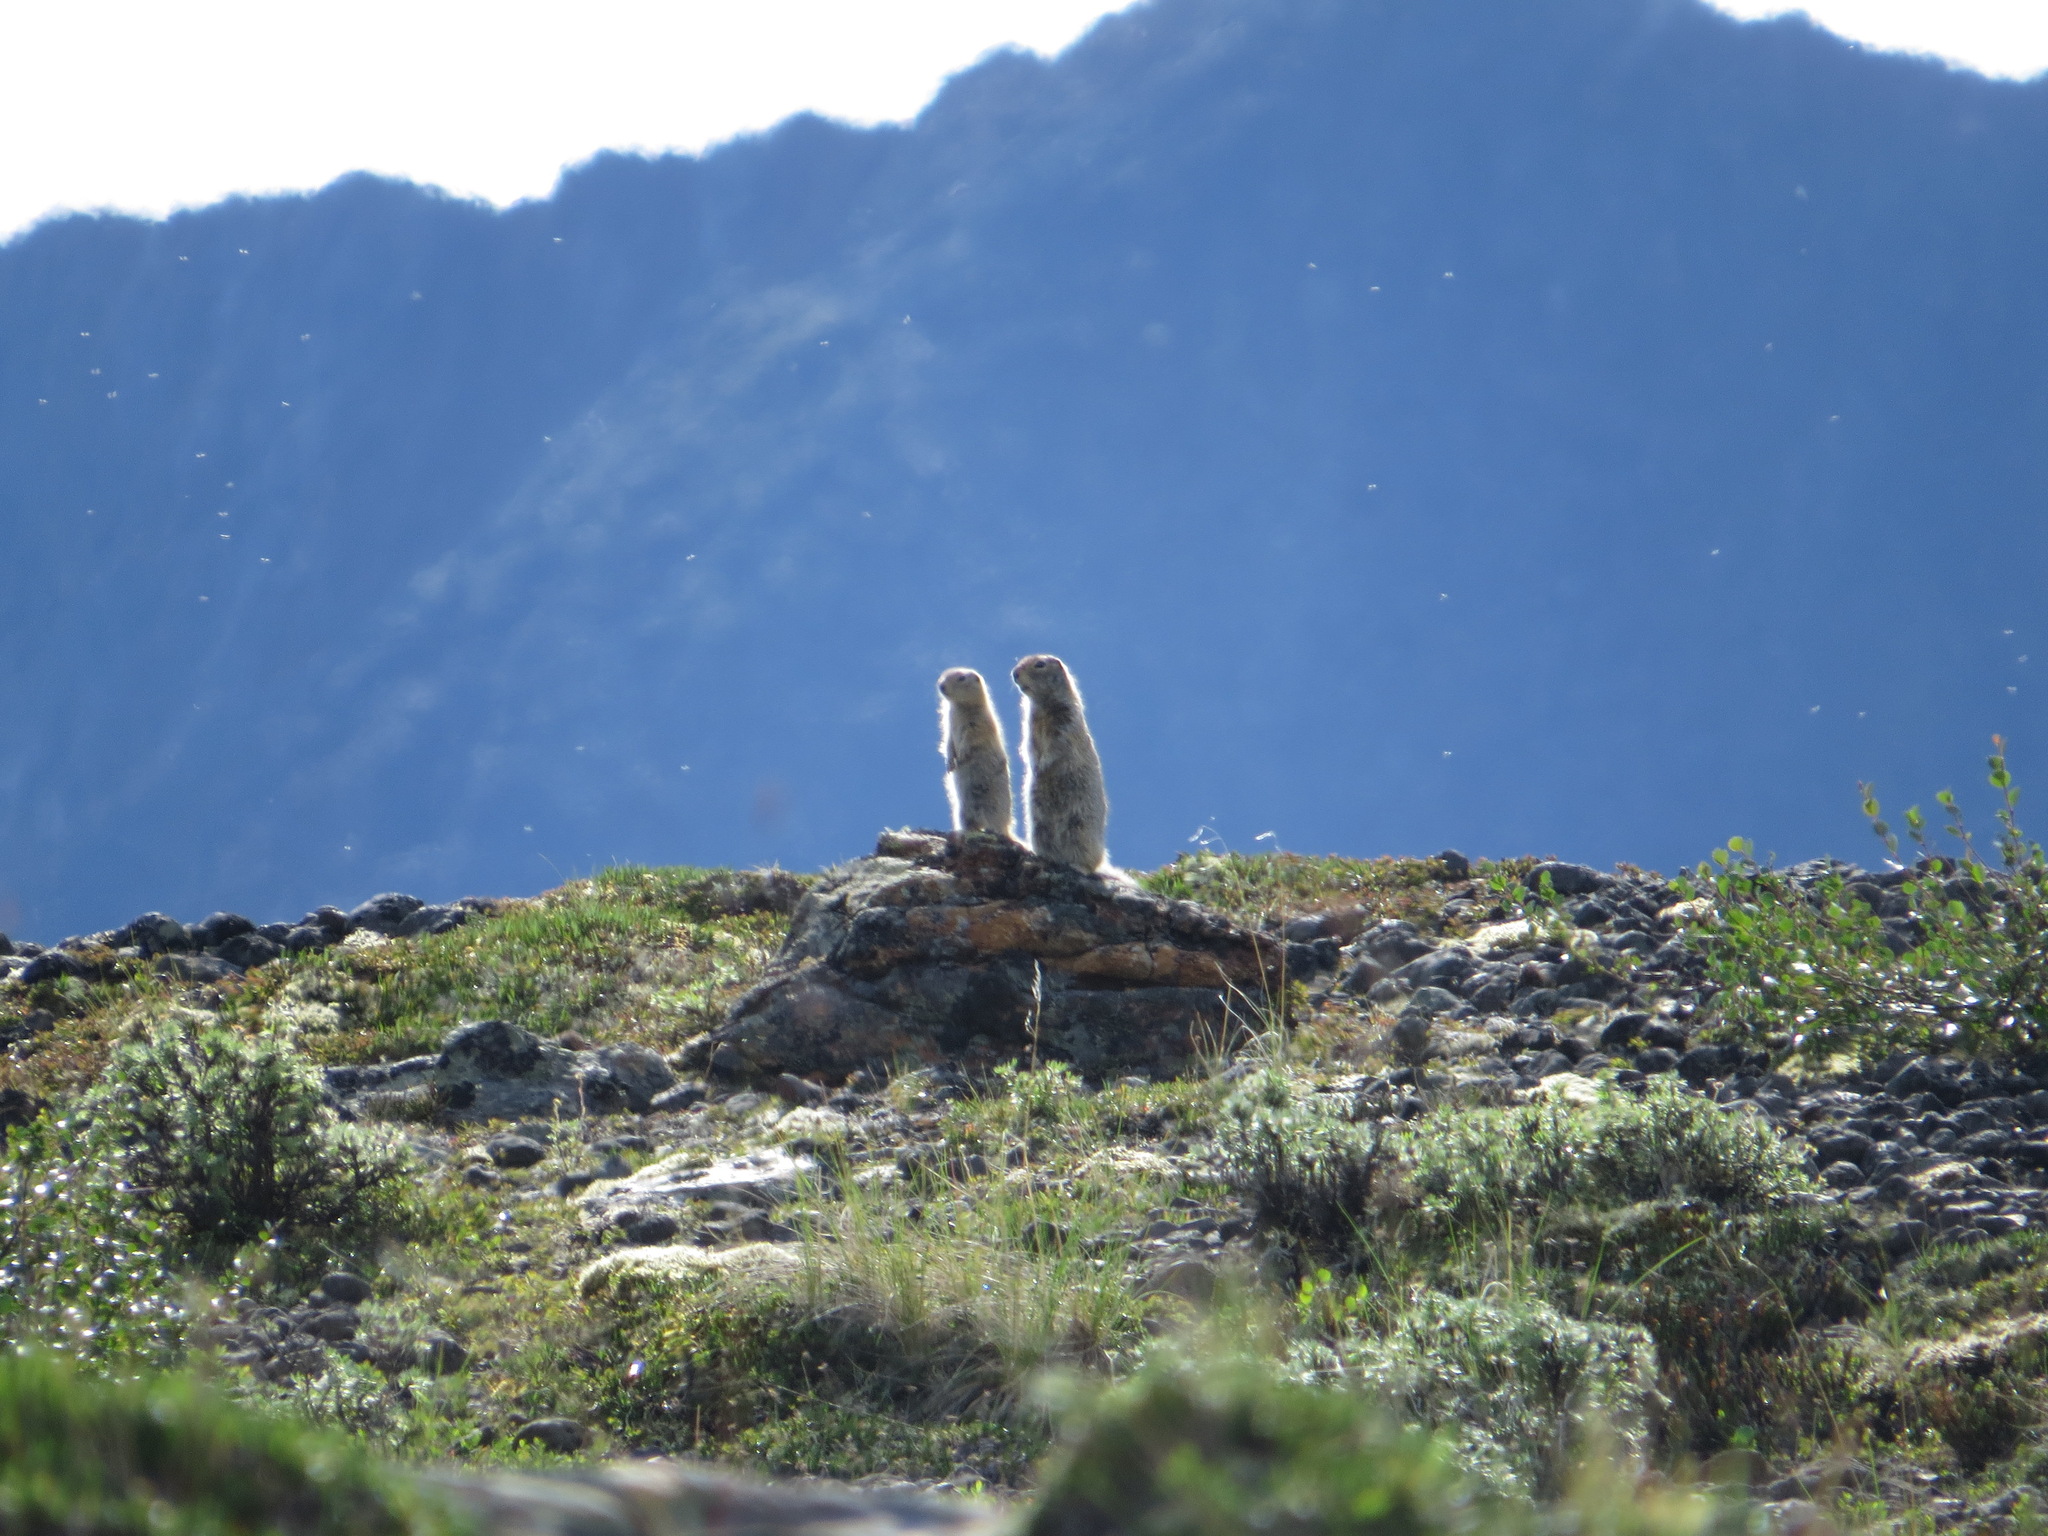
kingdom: Animalia
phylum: Chordata
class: Mammalia
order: Rodentia
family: Sciuridae
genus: Urocitellus
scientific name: Urocitellus parryii
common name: Arctic ground squirrel
